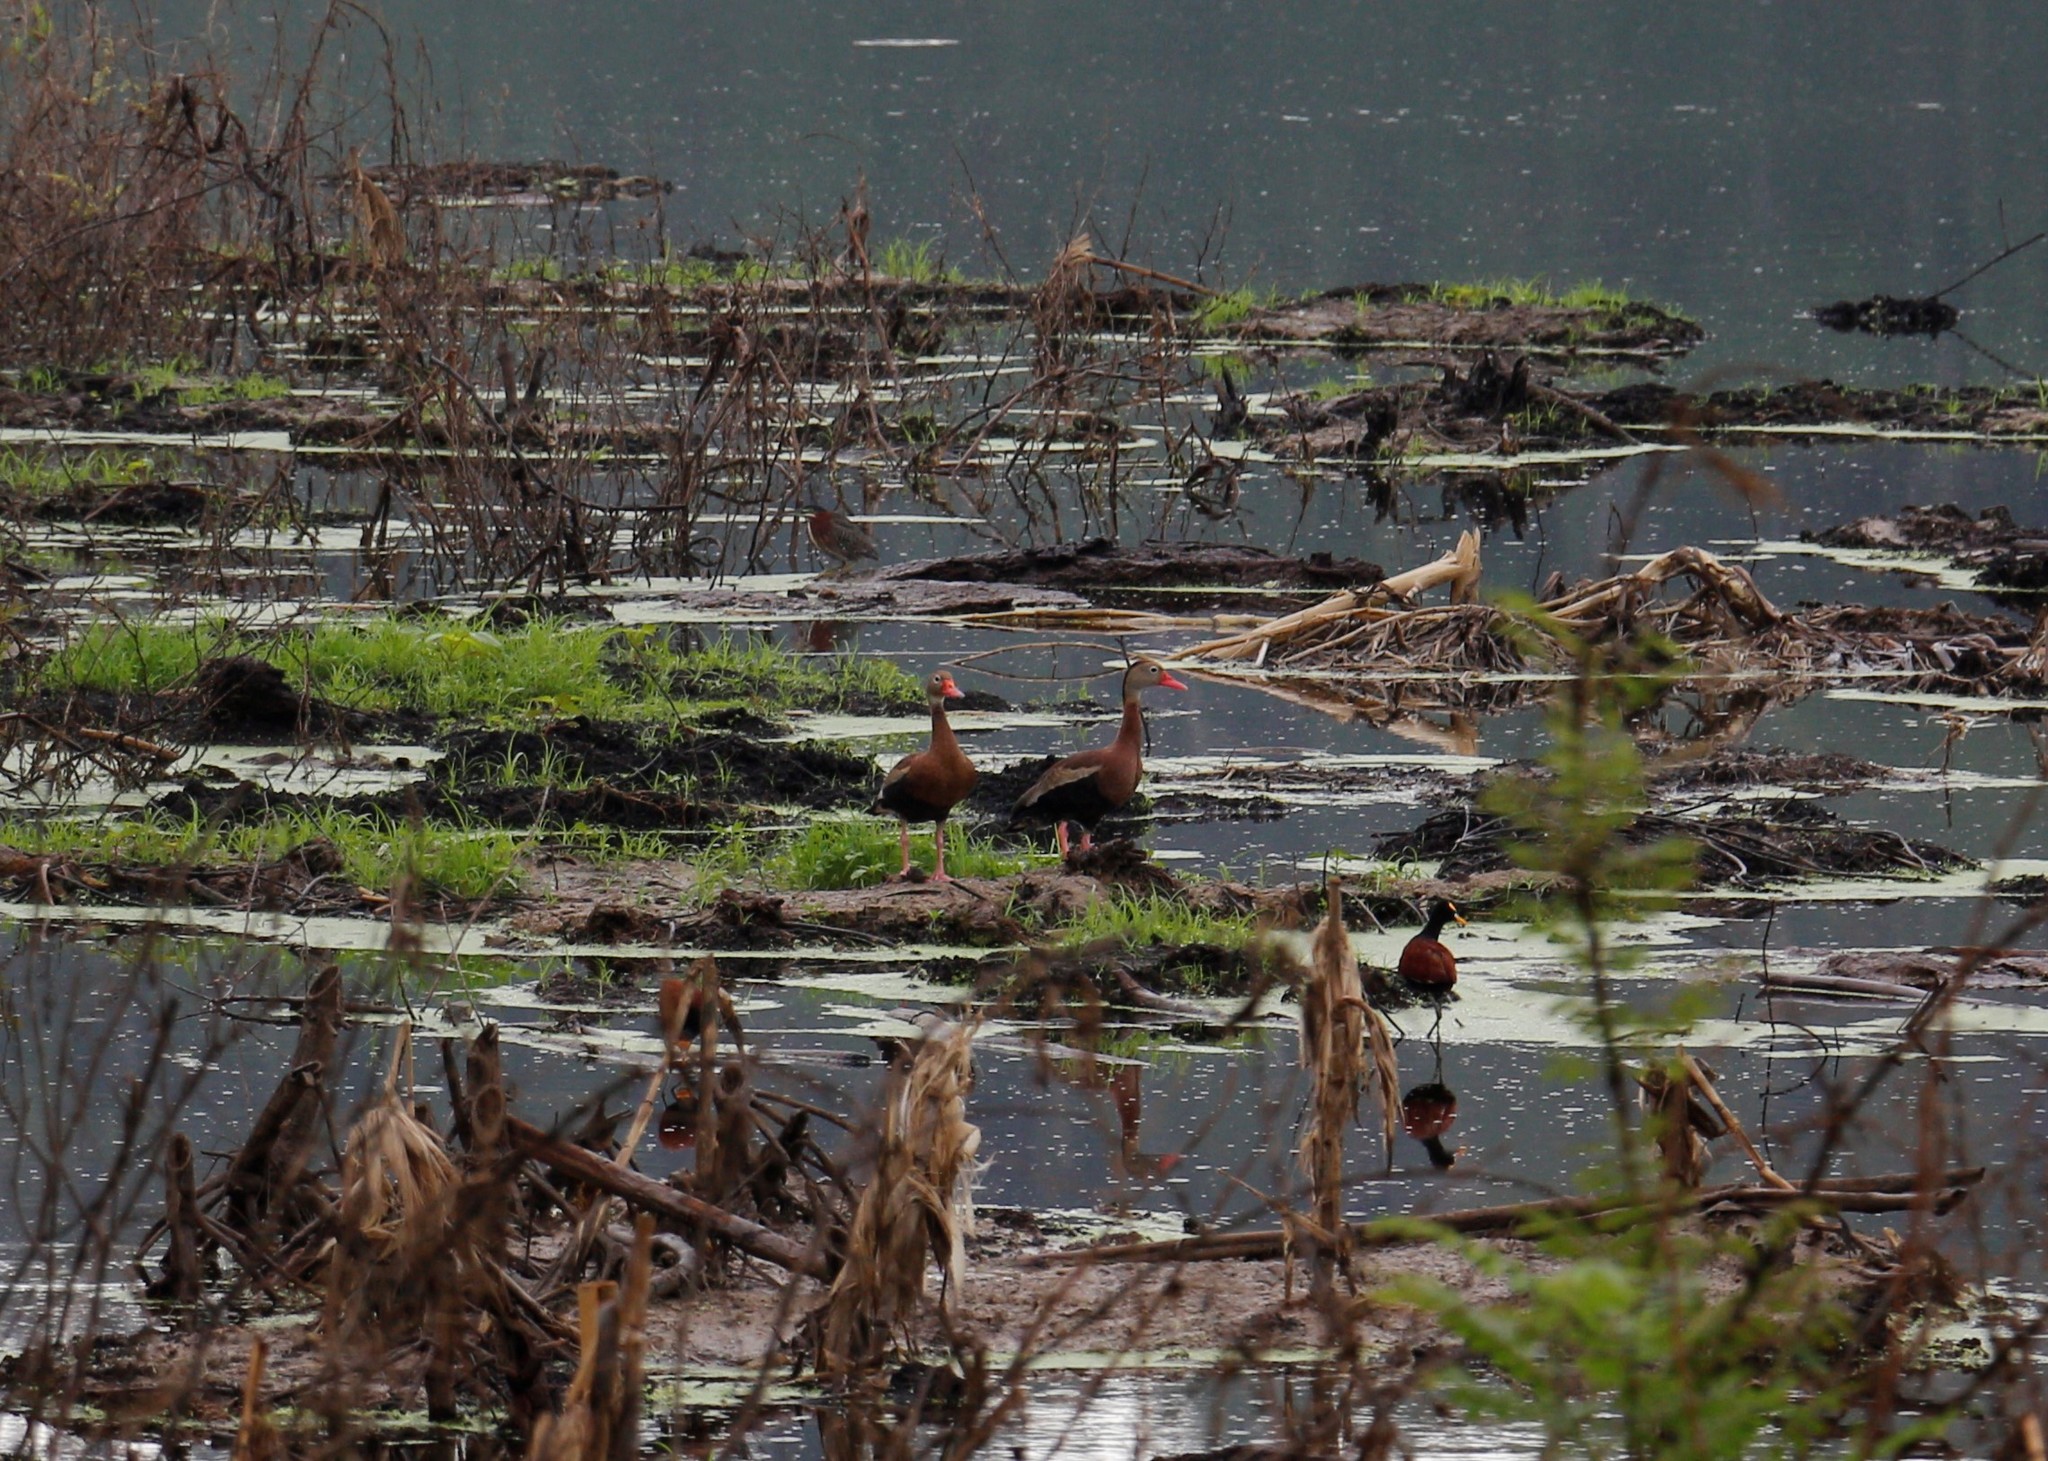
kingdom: Animalia
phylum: Chordata
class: Aves
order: Anseriformes
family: Anatidae
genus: Dendrocygna
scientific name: Dendrocygna autumnalis
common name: Black-bellied whistling duck
